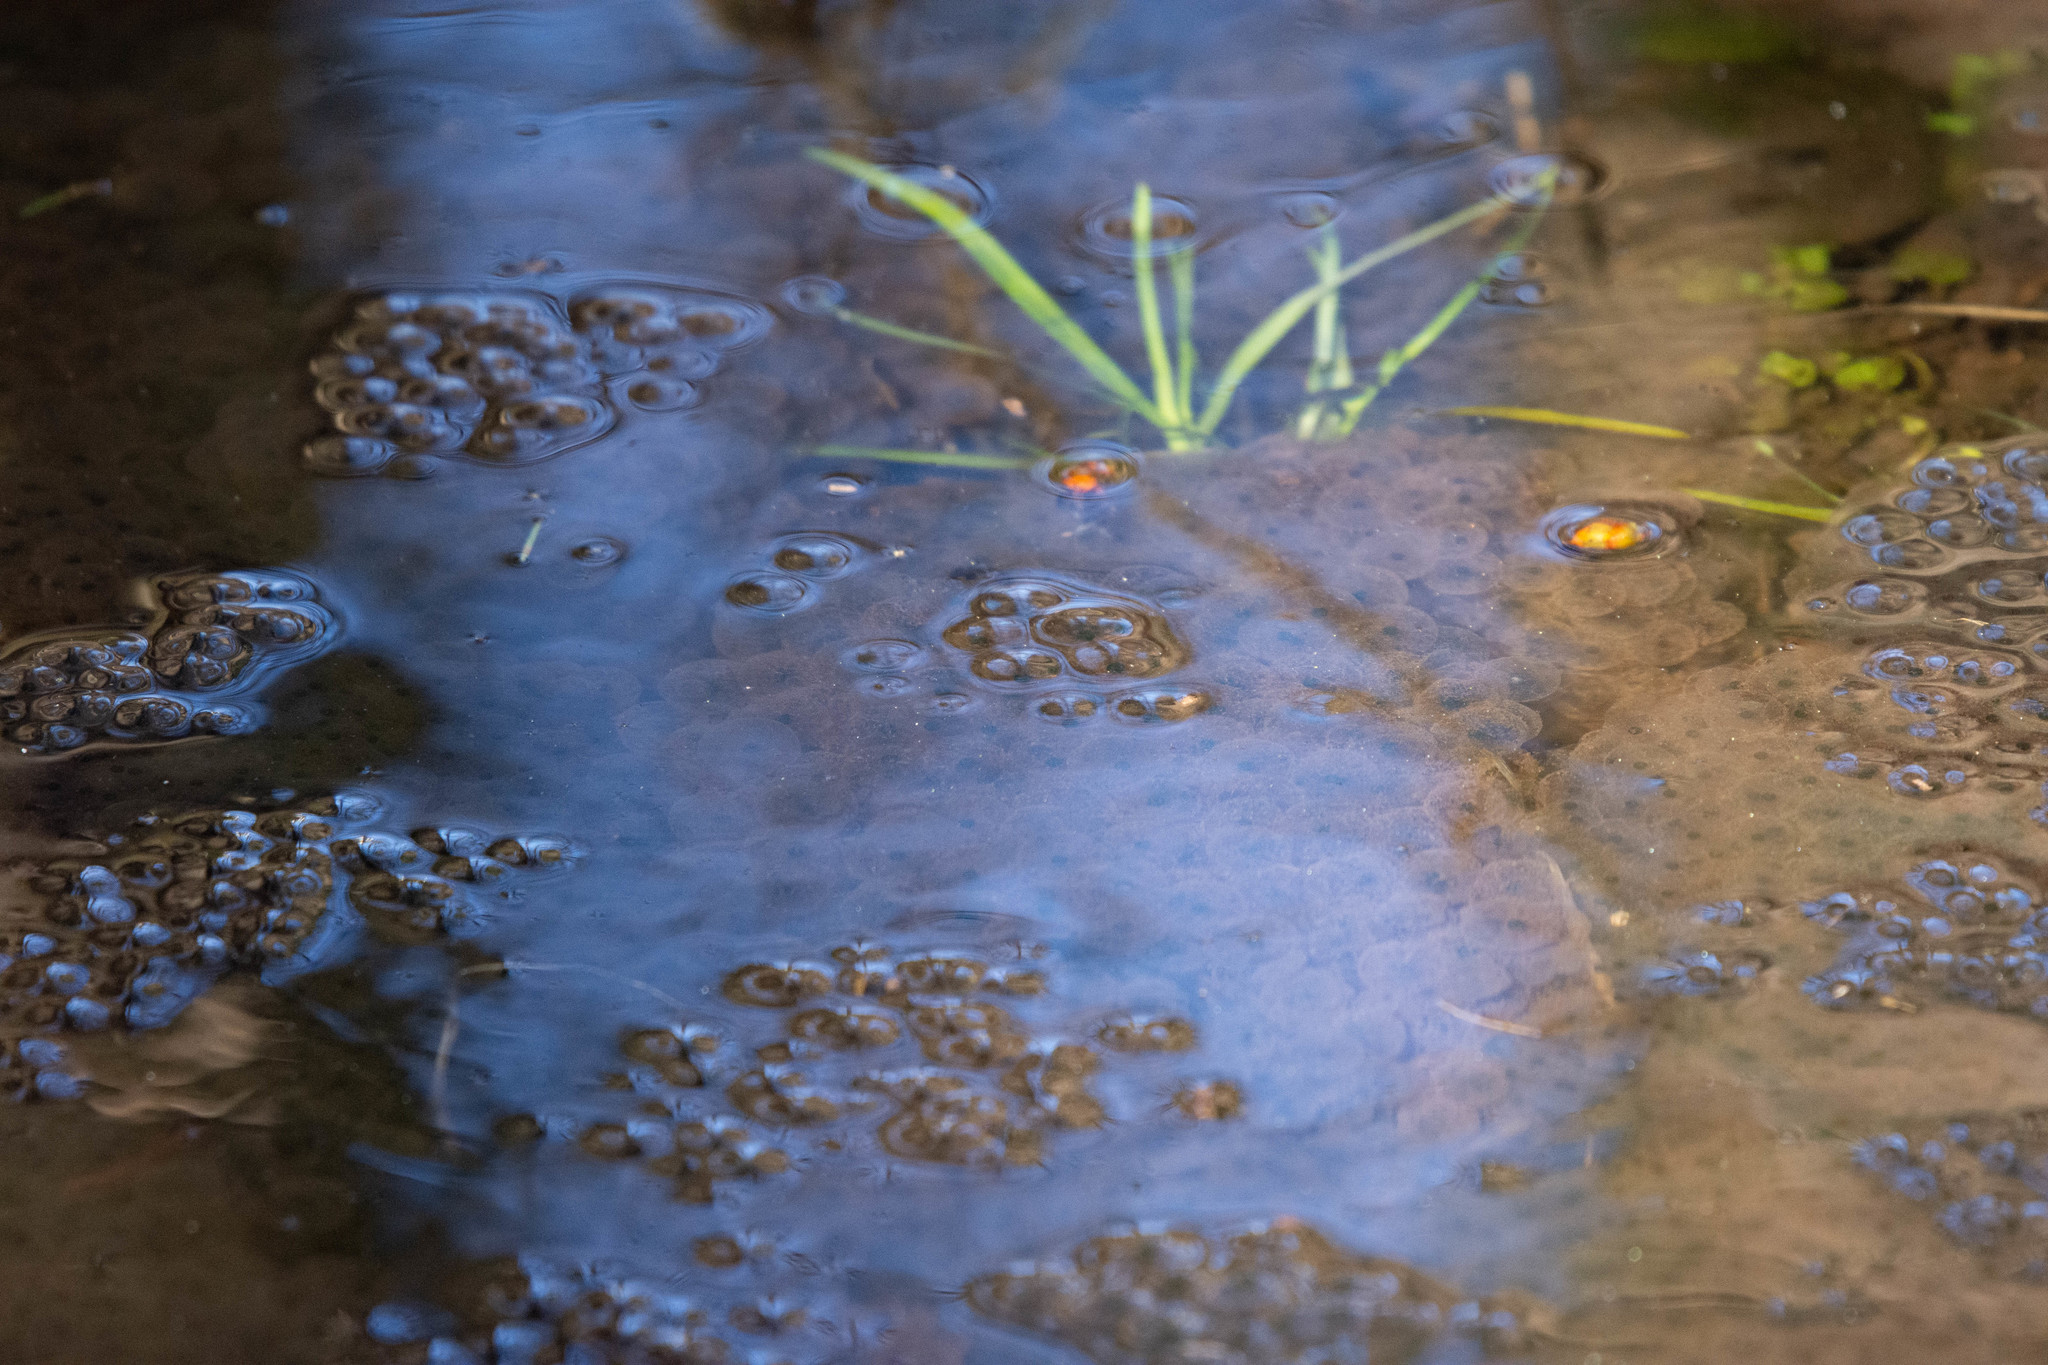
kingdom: Animalia
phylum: Chordata
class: Amphibia
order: Anura
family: Ranidae
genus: Rana
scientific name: Rana temporaria
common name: Common frog
